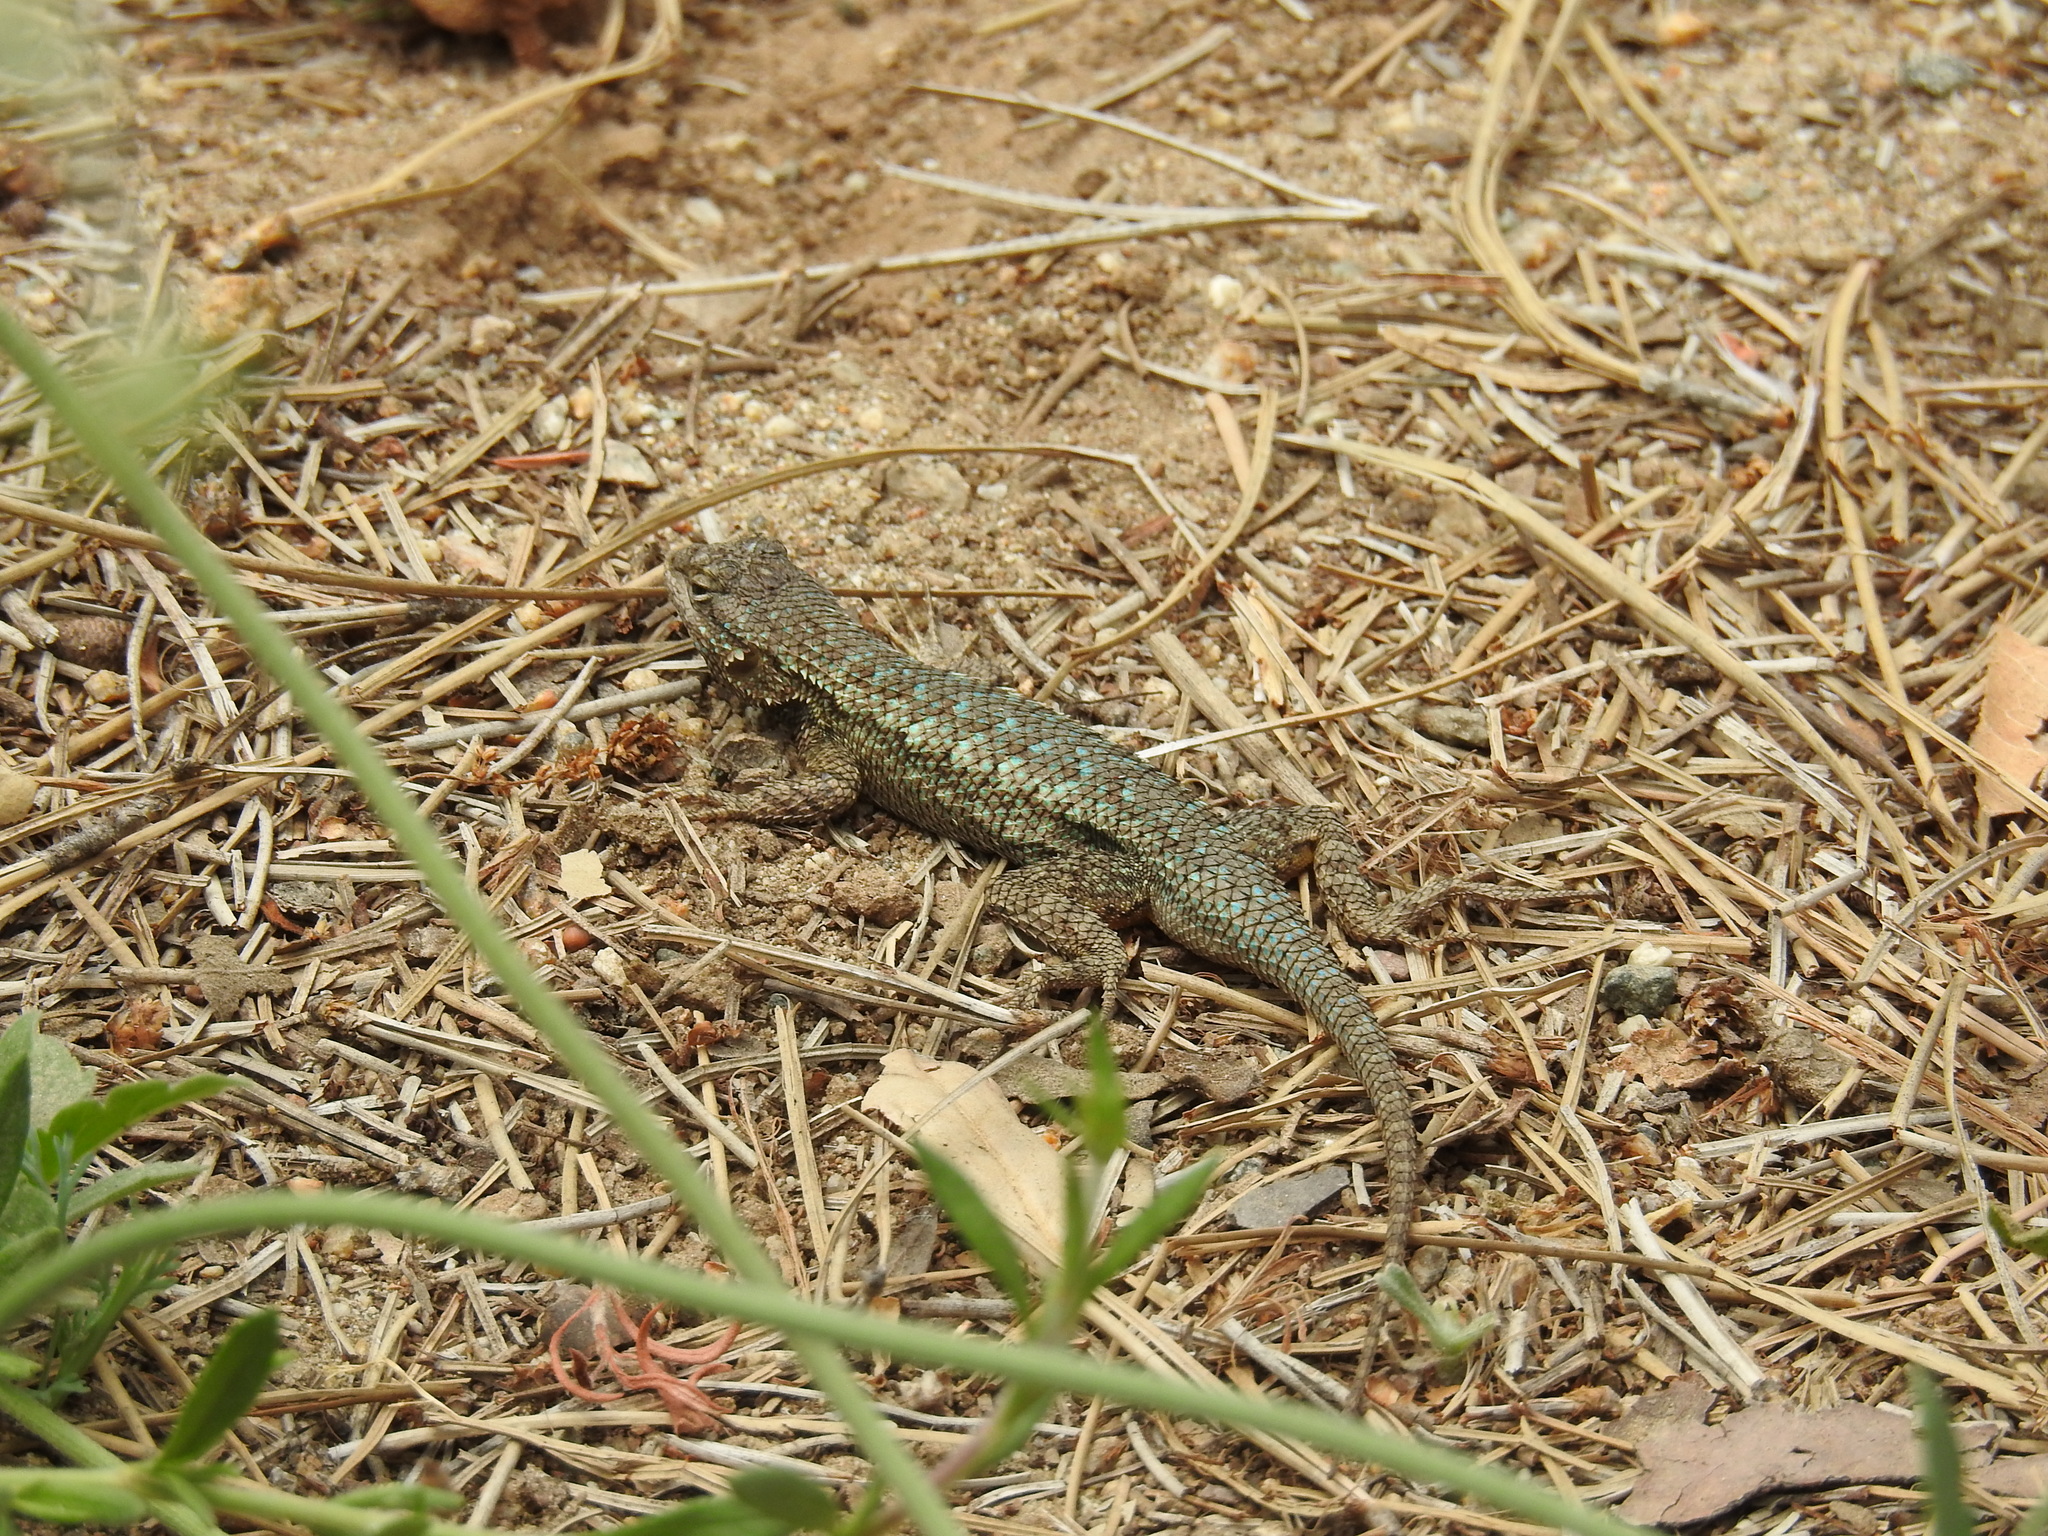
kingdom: Animalia
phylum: Chordata
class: Squamata
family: Phrynosomatidae
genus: Sceloporus
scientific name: Sceloporus occidentalis
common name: Western fence lizard
